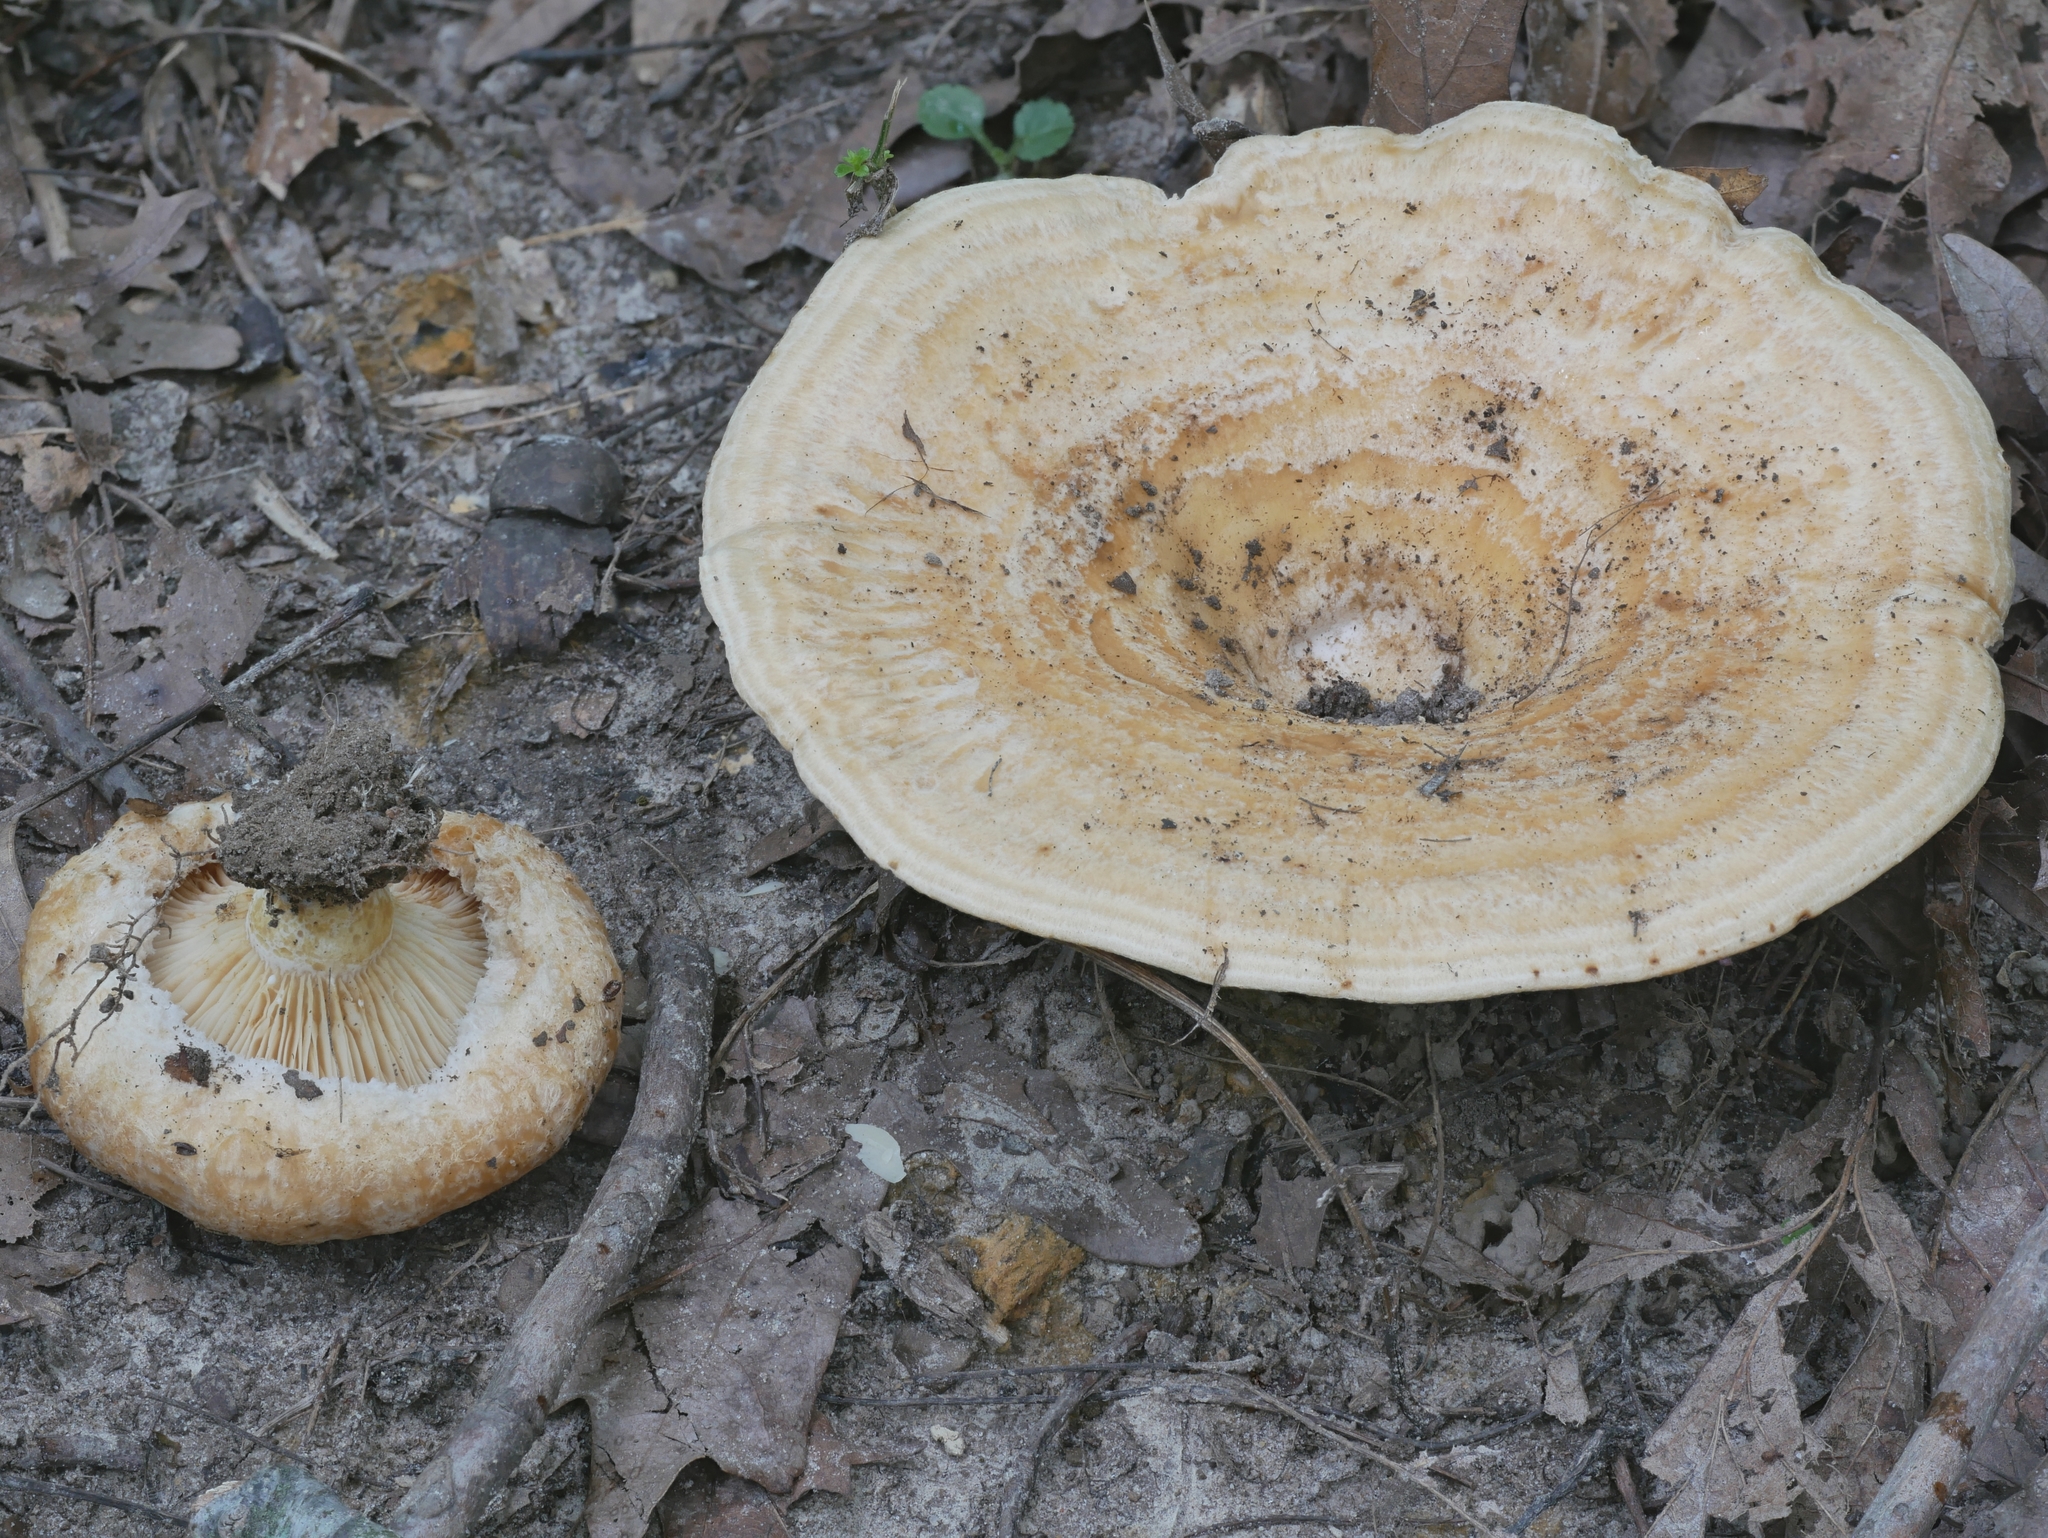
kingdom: Fungi
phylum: Basidiomycota
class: Agaricomycetes
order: Russulales
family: Russulaceae
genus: Lactarius
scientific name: Lactarius psammicola
